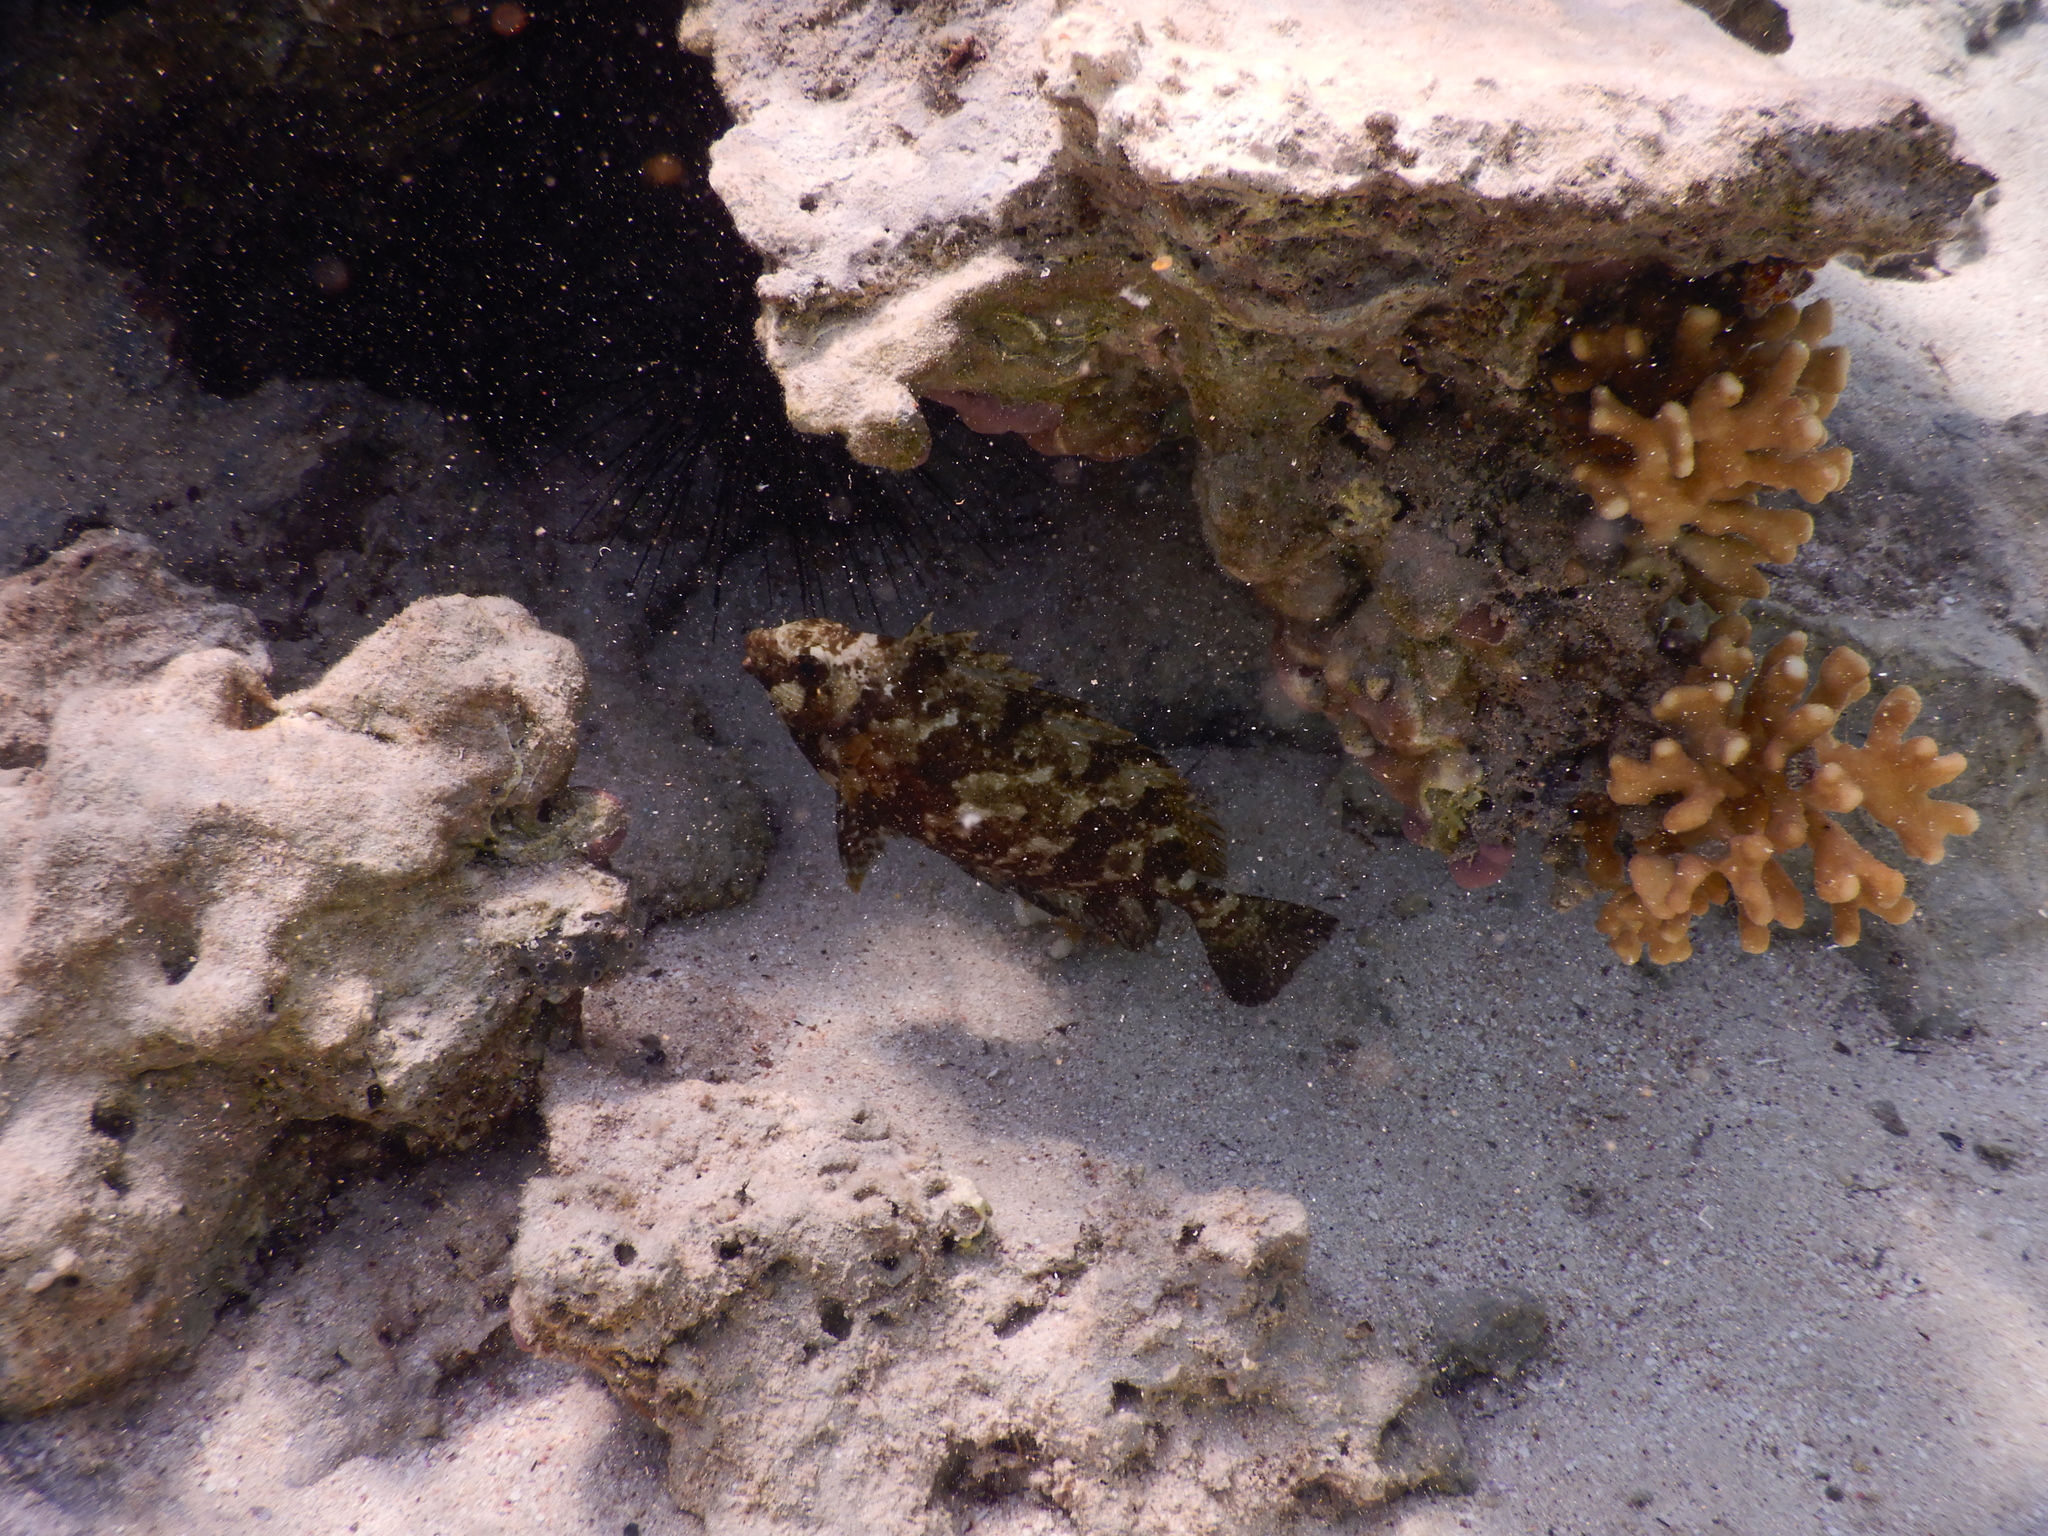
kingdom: Animalia
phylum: Chordata
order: Perciformes
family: Siganidae
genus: Siganus
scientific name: Siganus luridus
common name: Dusky spinefoot
